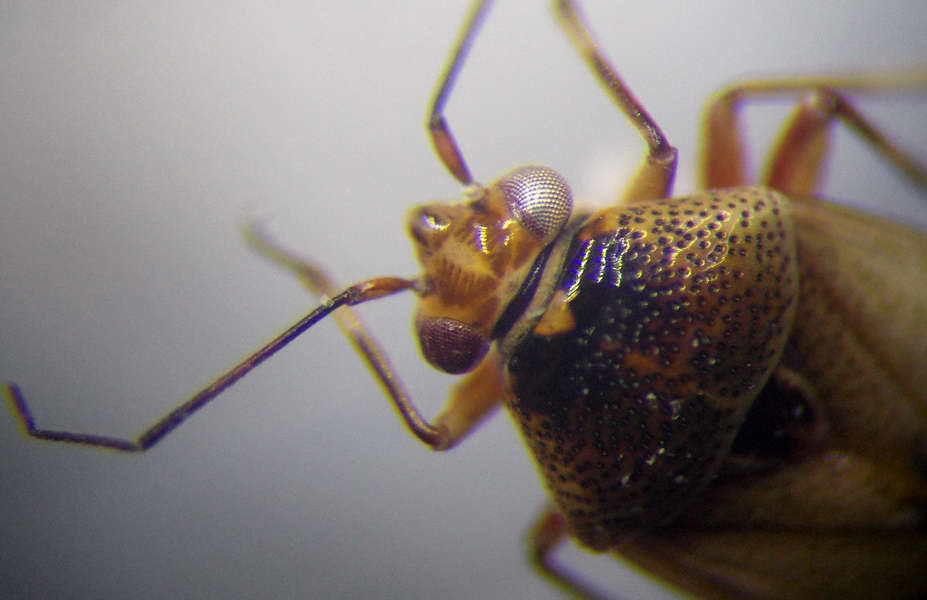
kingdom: Animalia
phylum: Arthropoda
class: Insecta
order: Hemiptera
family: Miridae
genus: Deraeocoris
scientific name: Deraeocoris serenus
